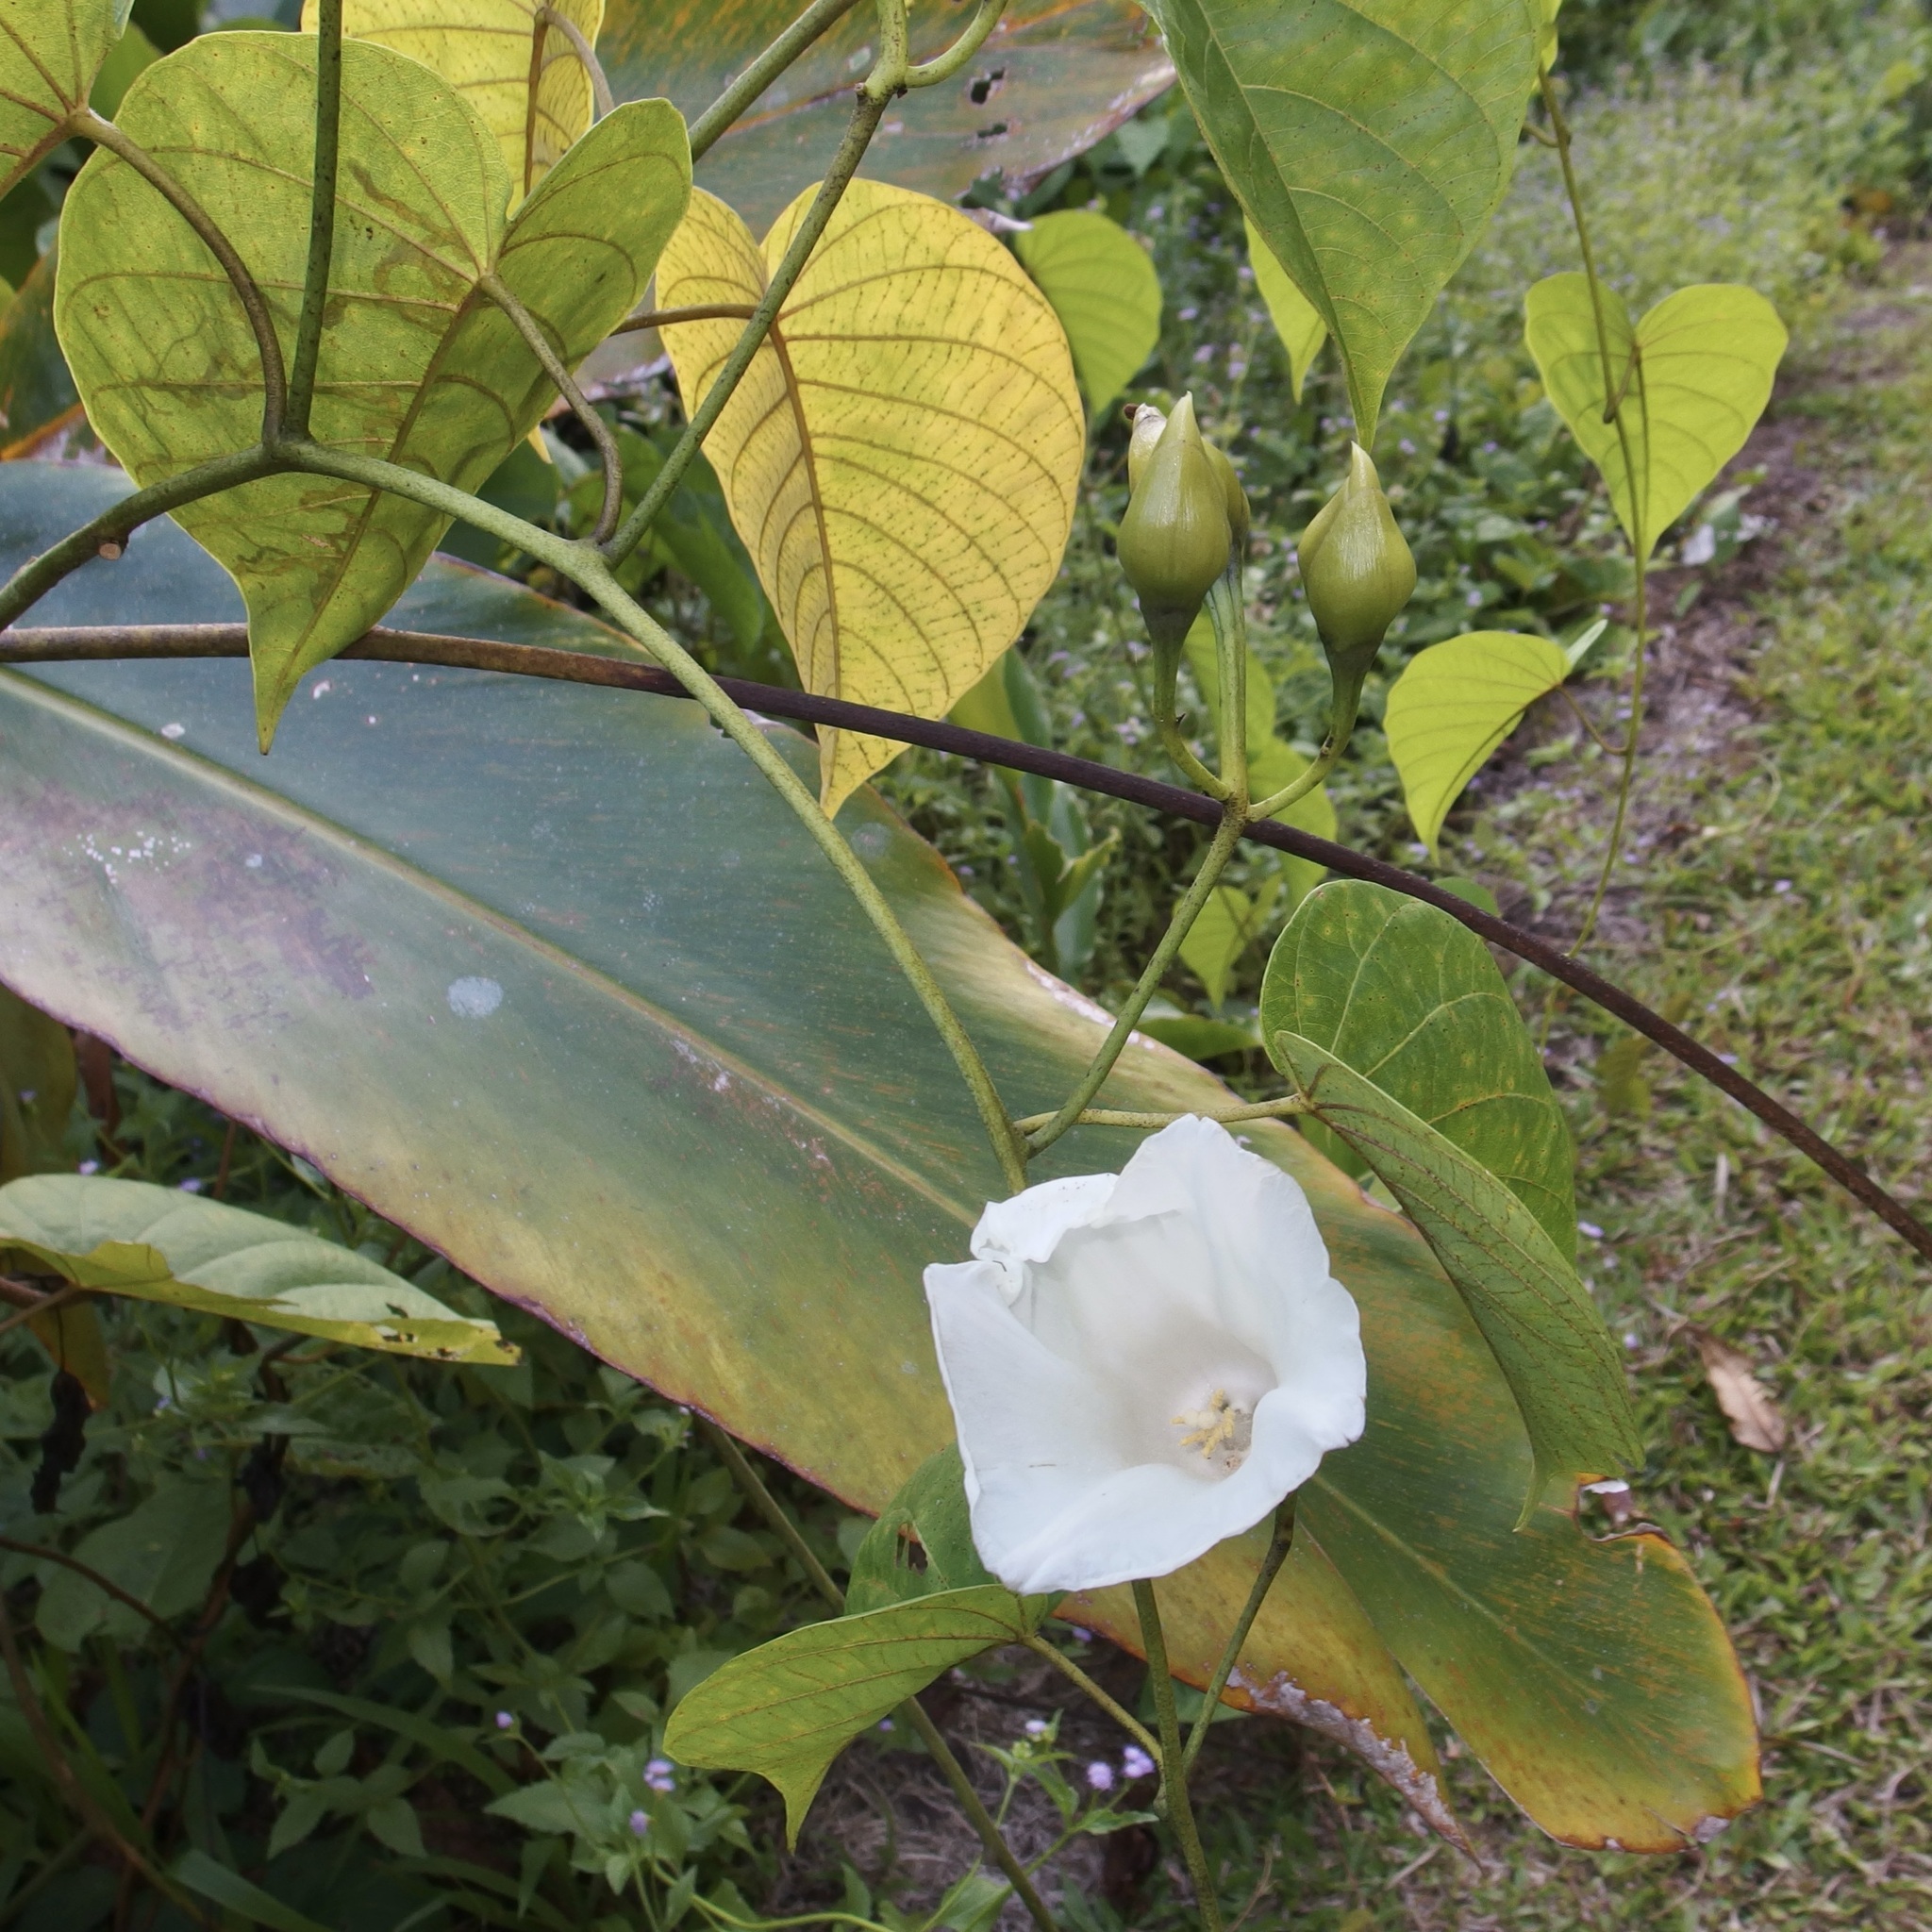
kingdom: Plantae
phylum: Tracheophyta
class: Magnoliopsida
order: Solanales
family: Convolvulaceae
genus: Decalobanthus
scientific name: Decalobanthus peltatus
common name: Merremia
